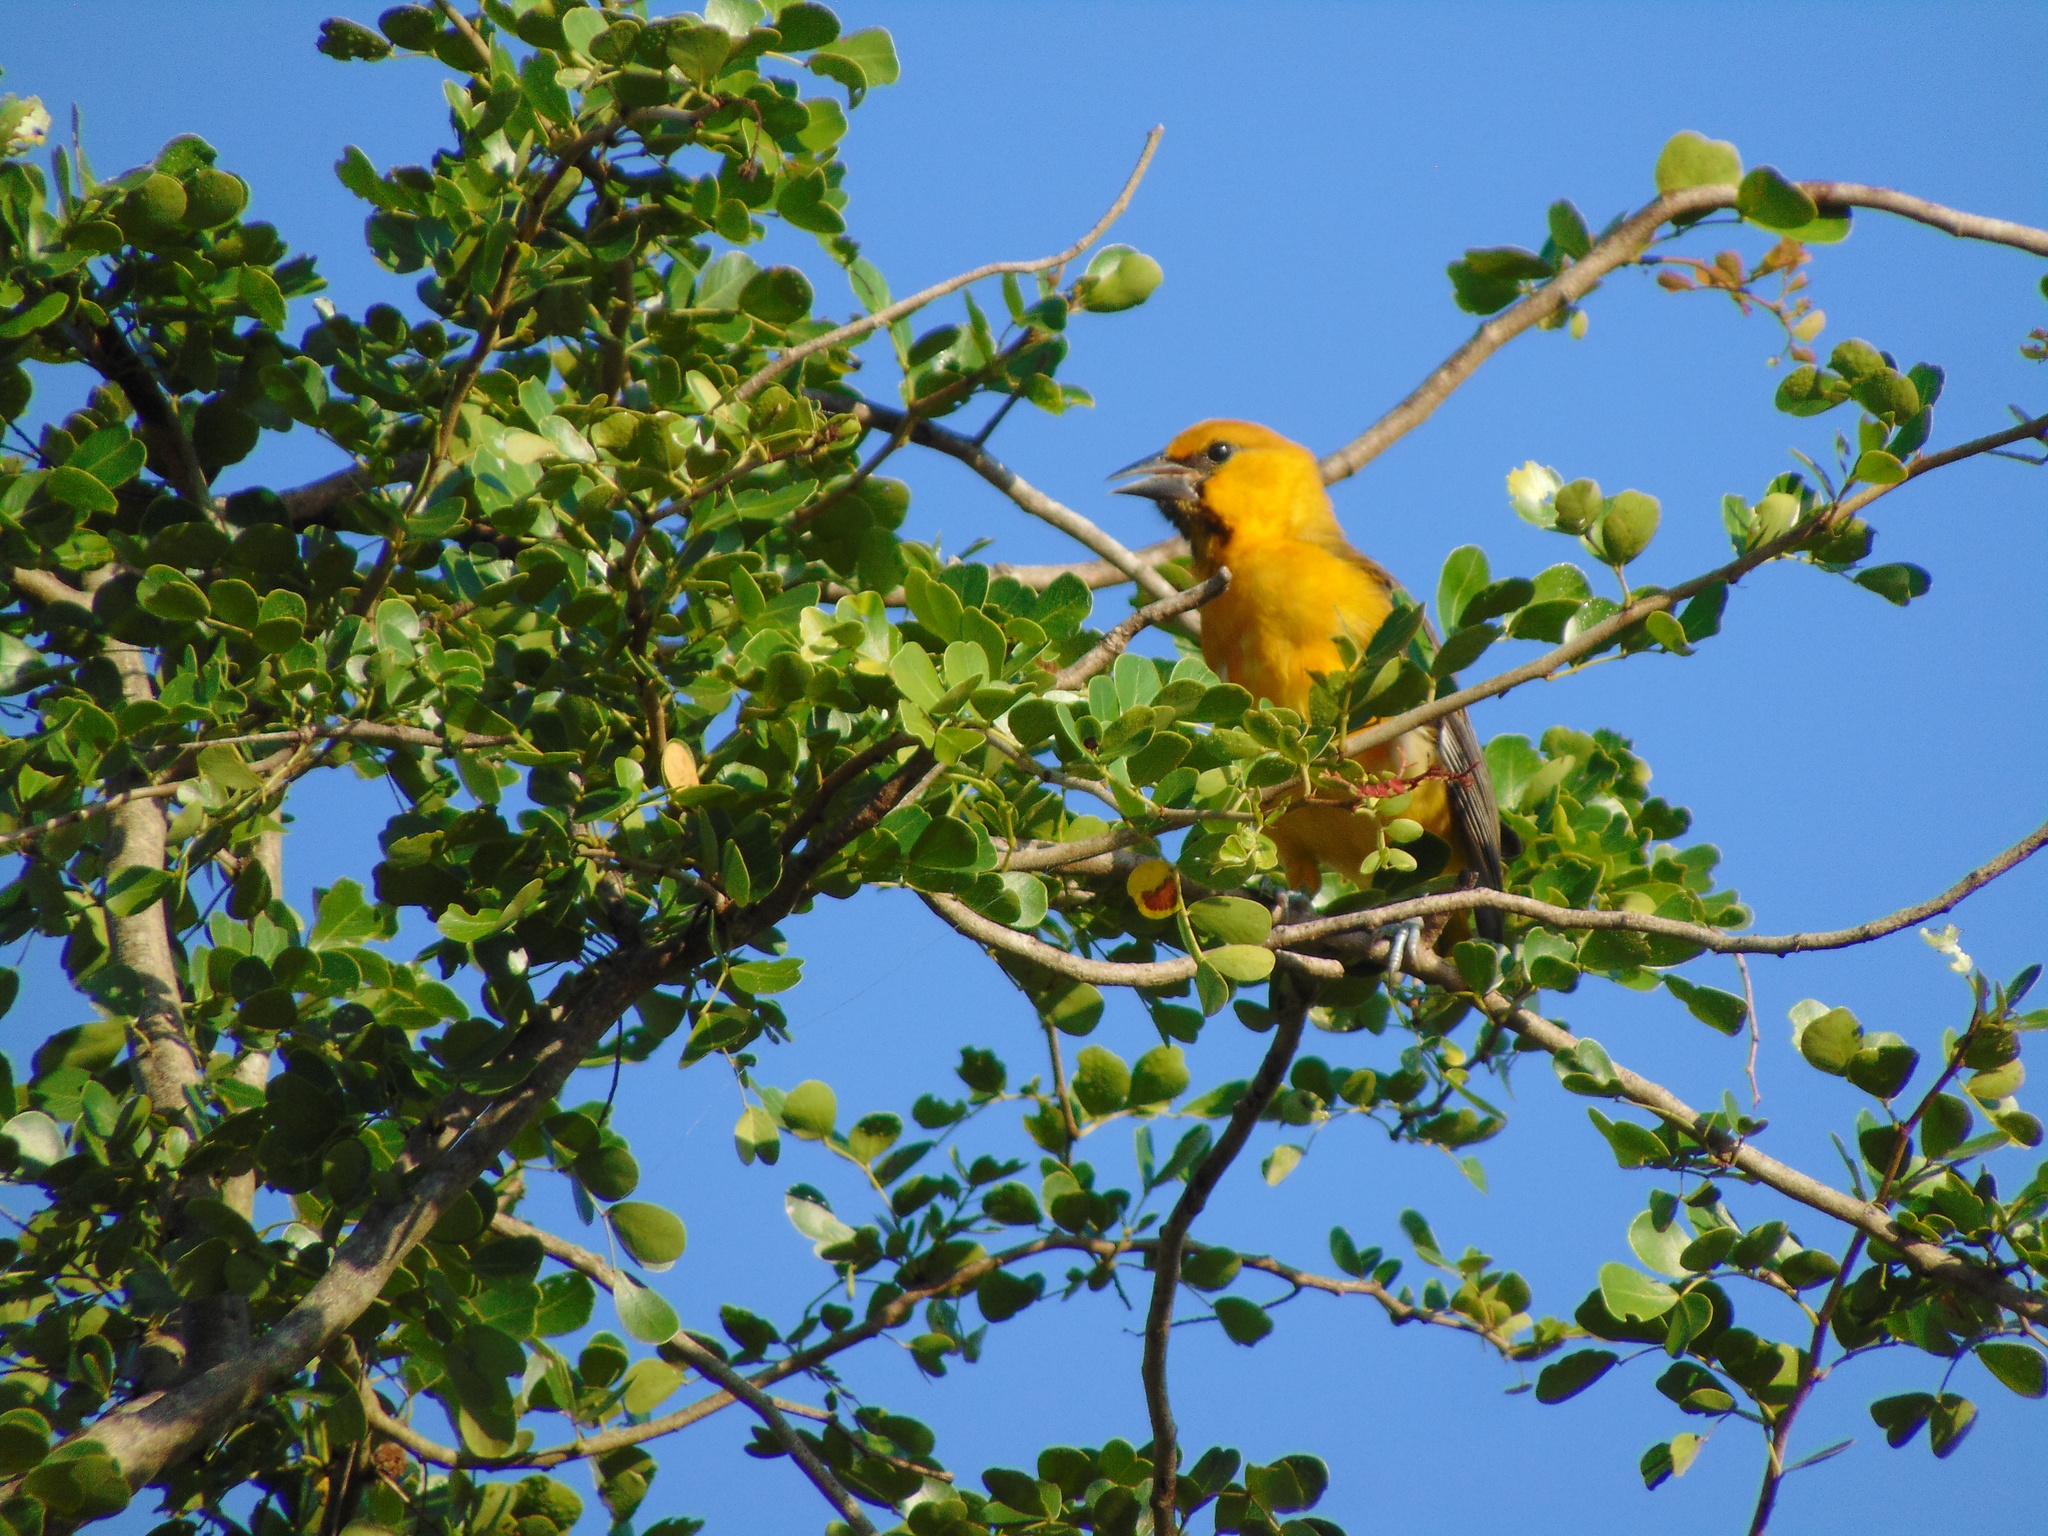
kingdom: Animalia
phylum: Chordata
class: Aves
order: Passeriformes
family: Icteridae
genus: Icterus
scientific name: Icterus spurius
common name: Orchard oriole
